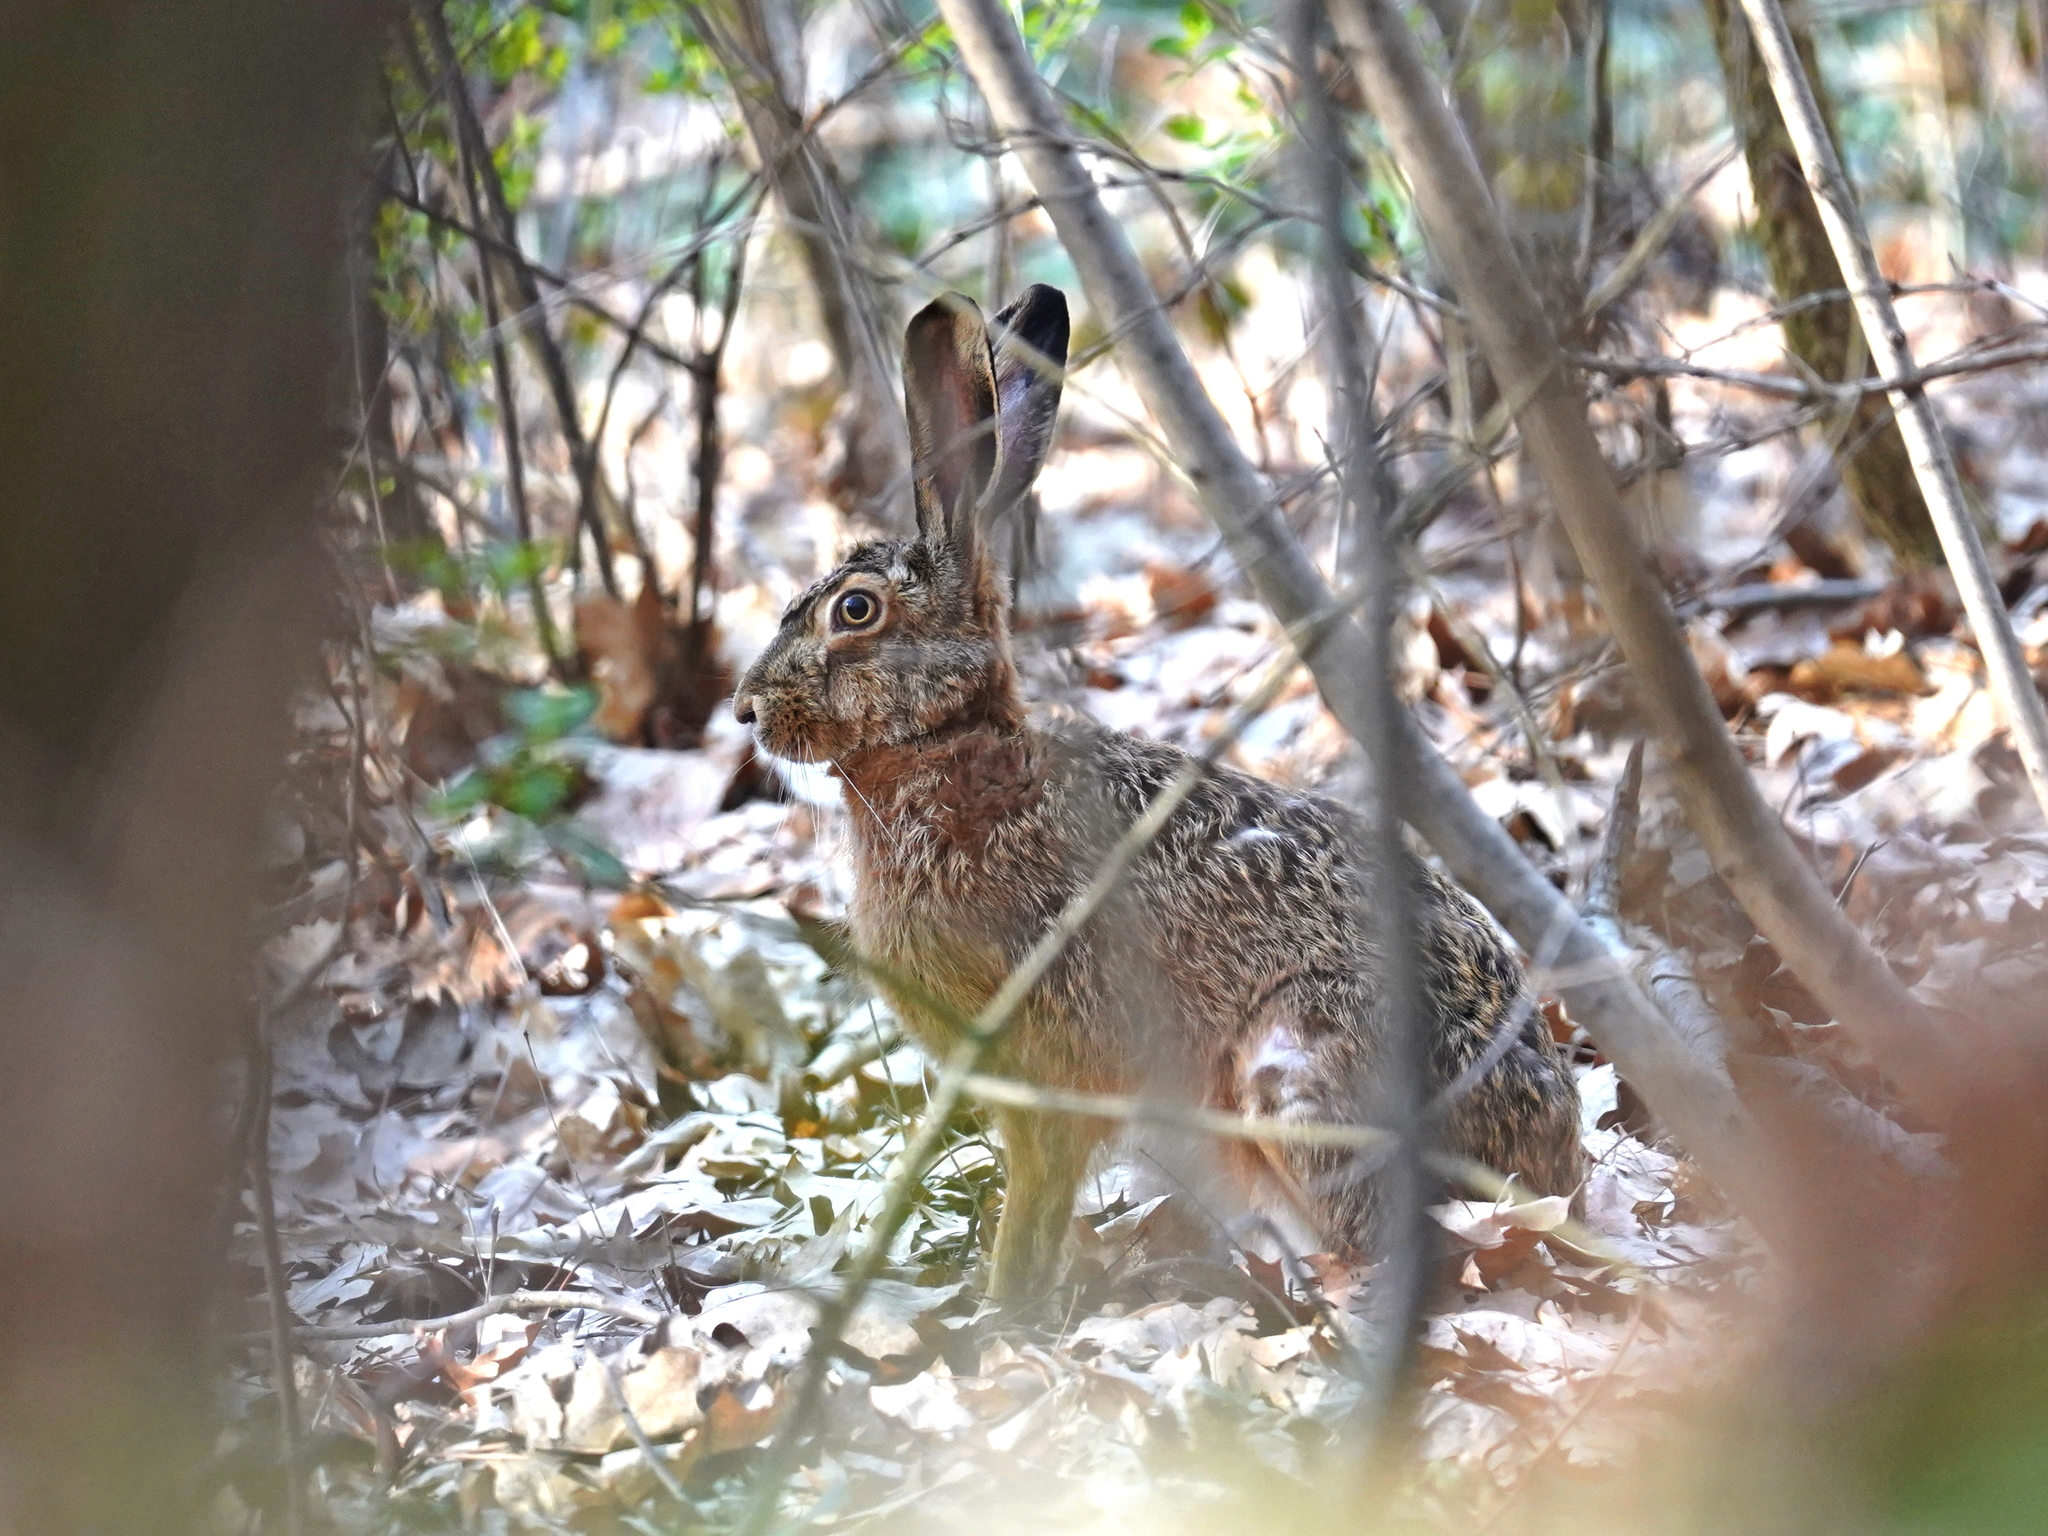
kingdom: Animalia
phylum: Chordata
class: Mammalia
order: Lagomorpha
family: Leporidae
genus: Lepus
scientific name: Lepus europaeus
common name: European hare
